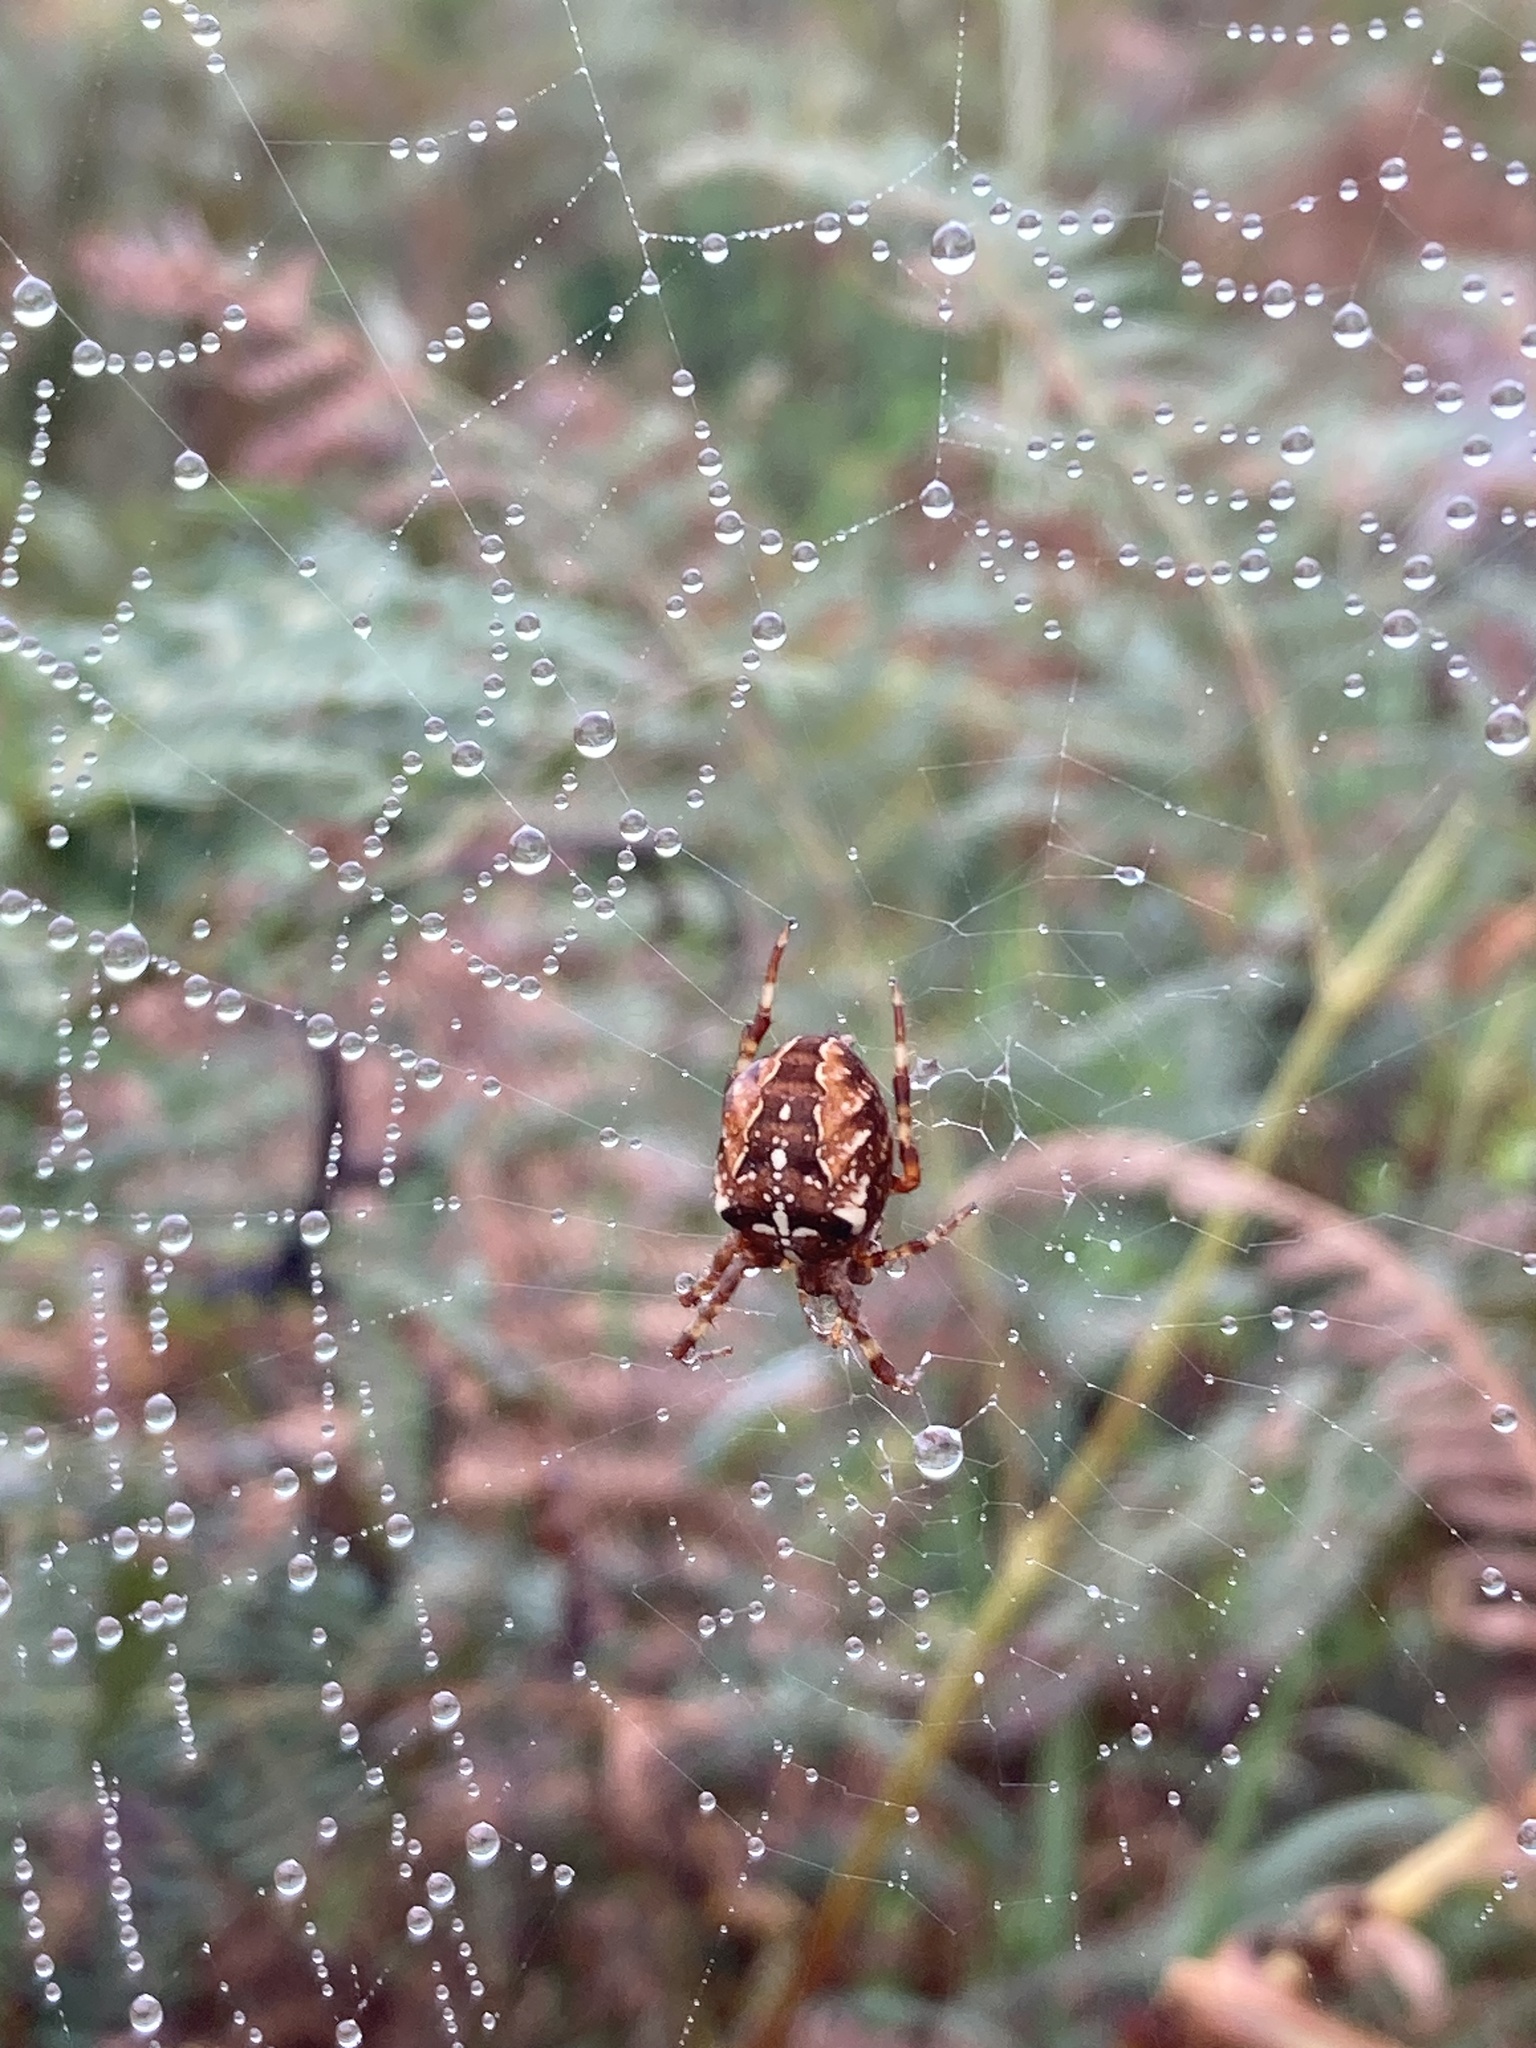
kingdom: Animalia
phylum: Arthropoda
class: Arachnida
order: Araneae
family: Araneidae
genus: Araneus
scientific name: Araneus diadematus
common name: Cross orbweaver
